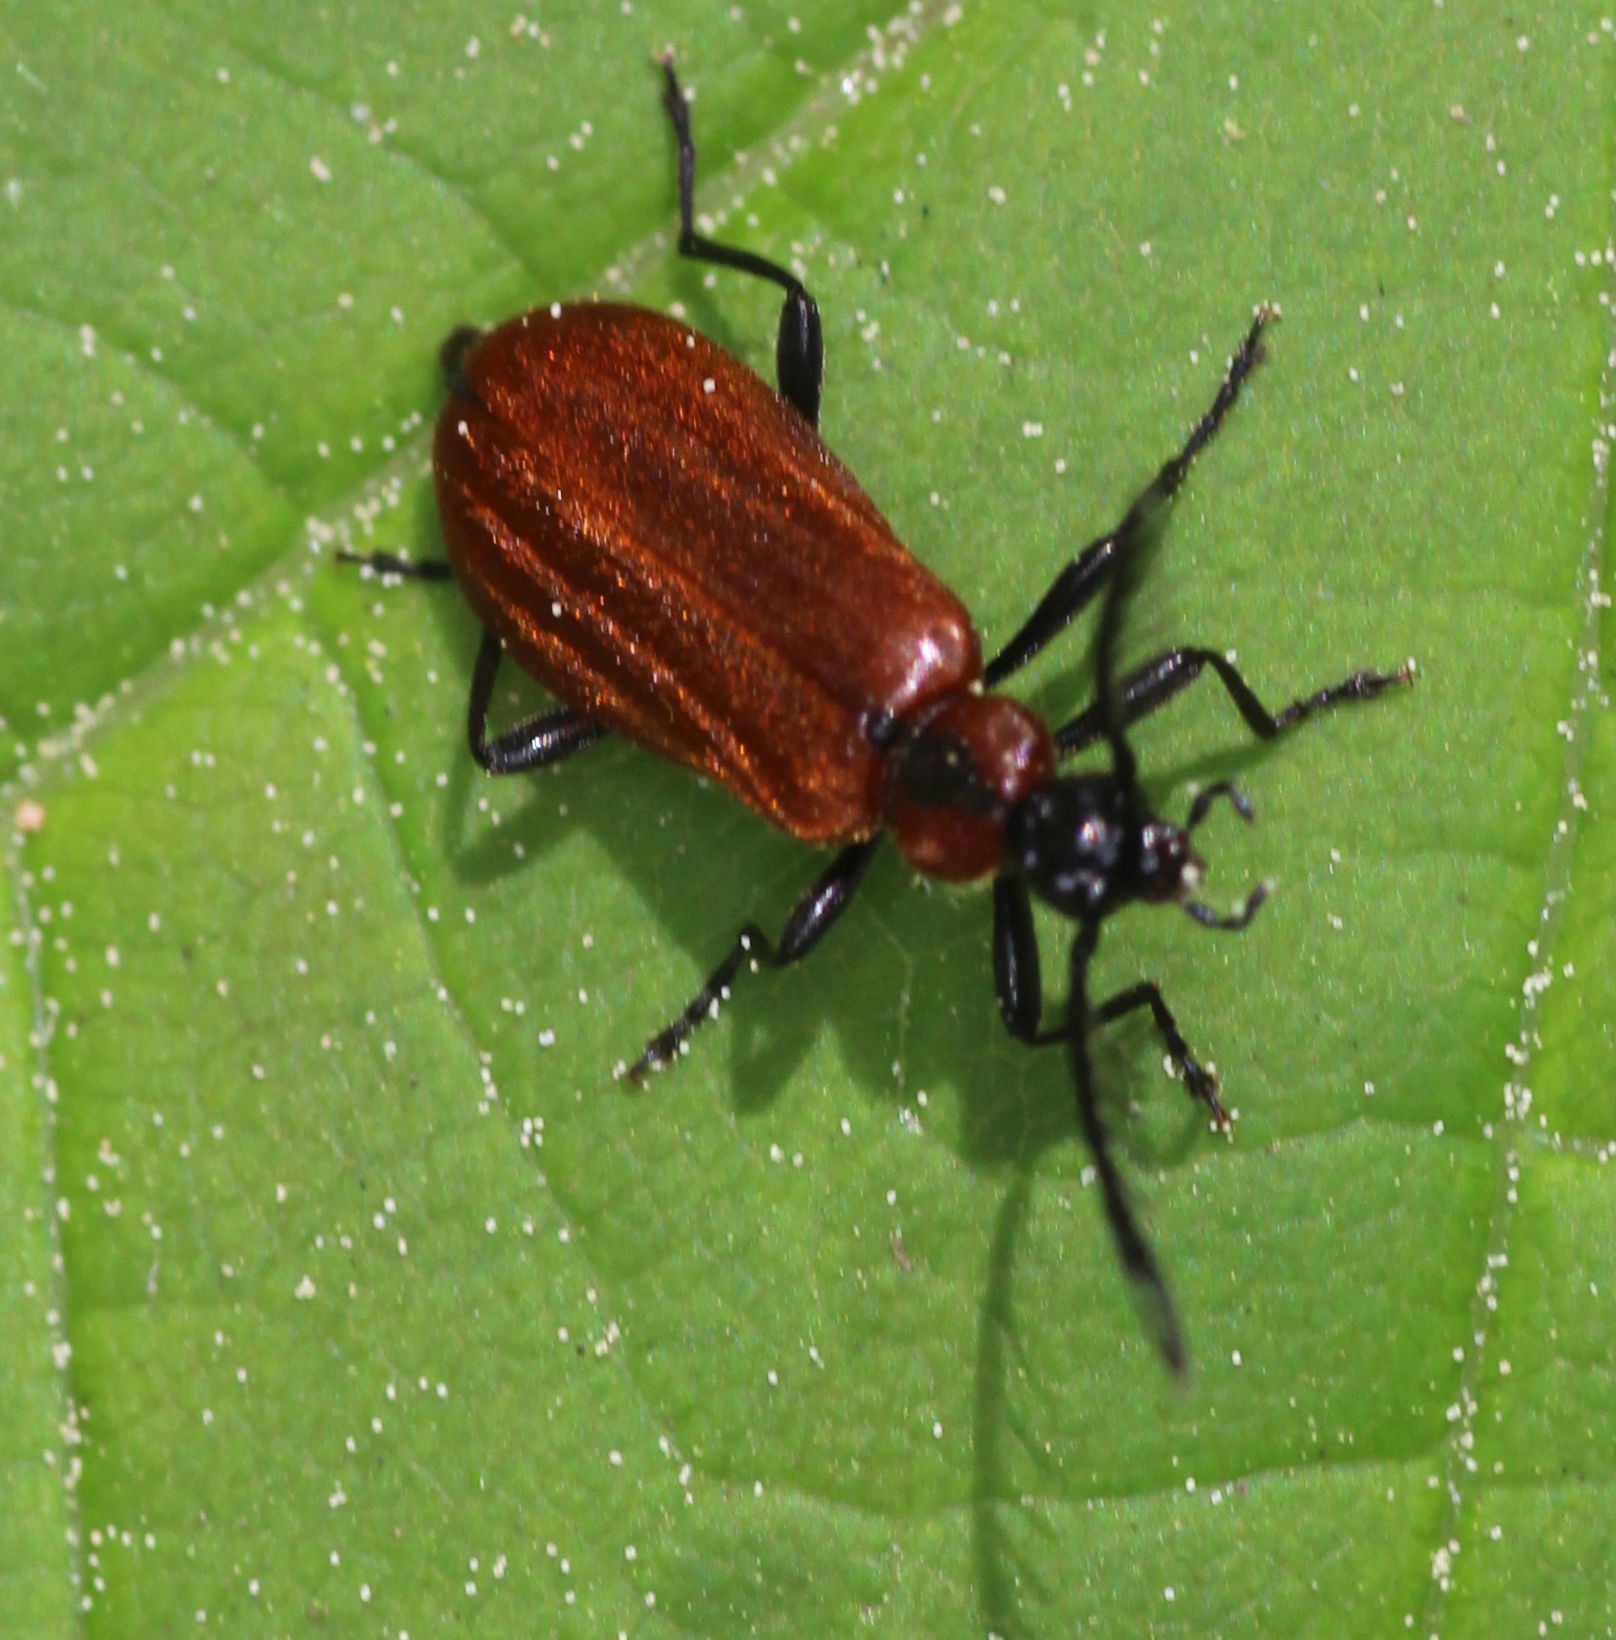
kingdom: Animalia
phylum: Arthropoda
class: Insecta
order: Coleoptera
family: Pyrochroidae
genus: Schizotus
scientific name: Schizotus pectinicornis
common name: Scarce cardinal beetle
